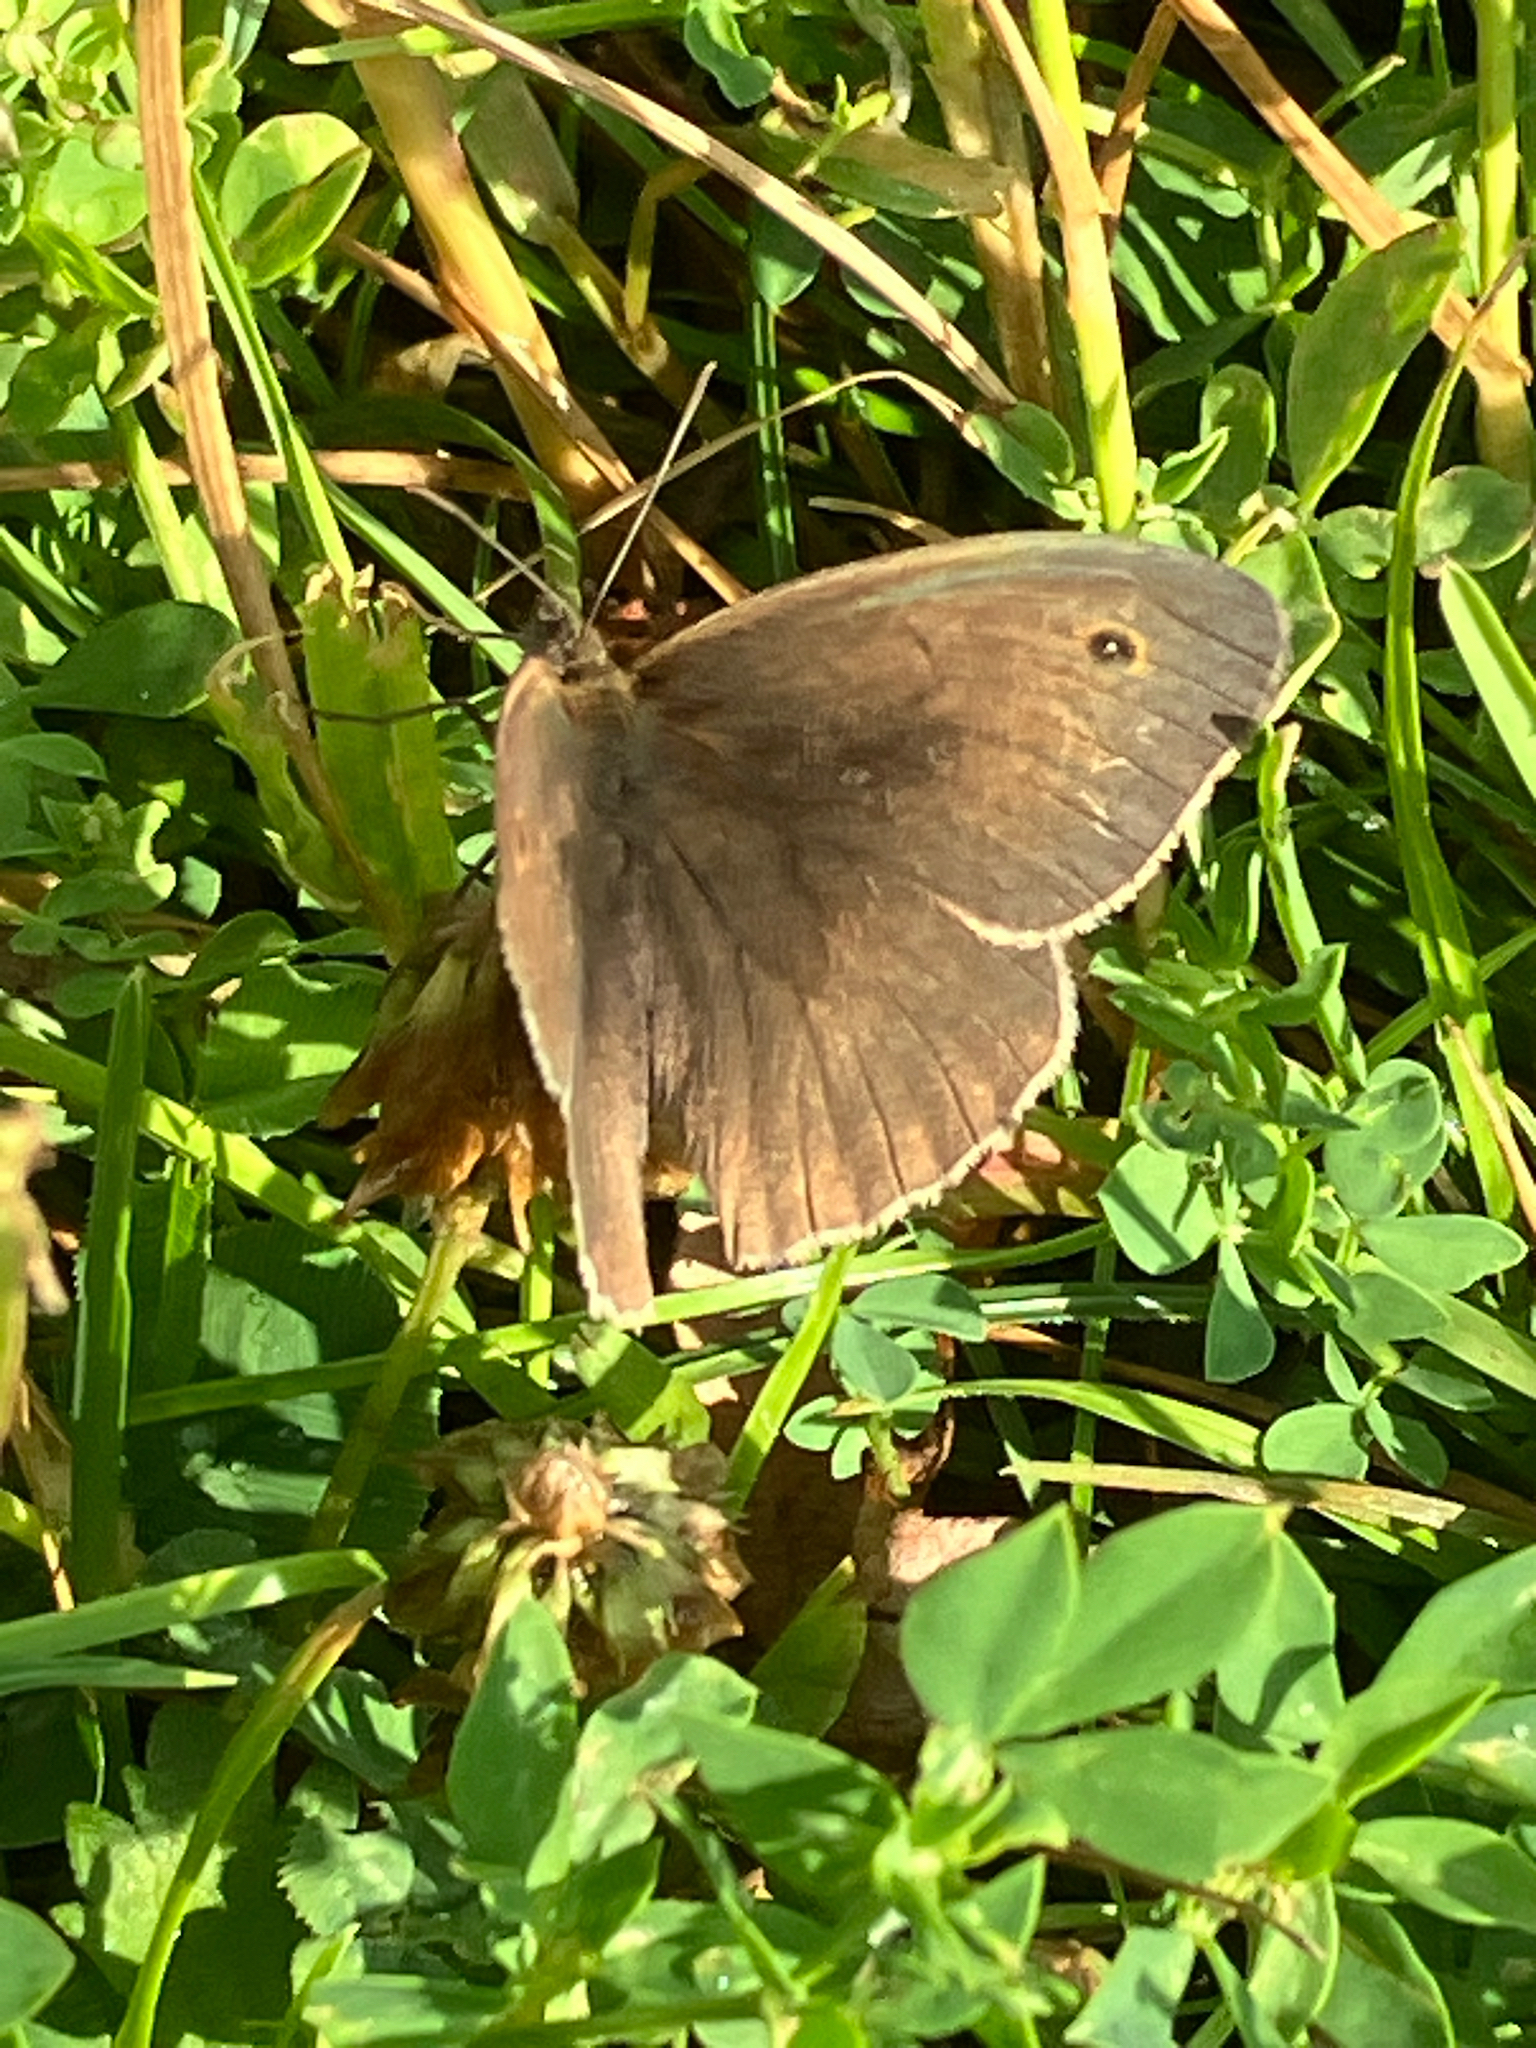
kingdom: Animalia
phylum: Arthropoda
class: Insecta
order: Lepidoptera
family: Nymphalidae
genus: Maniola
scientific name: Maniola jurtina
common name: Meadow brown
